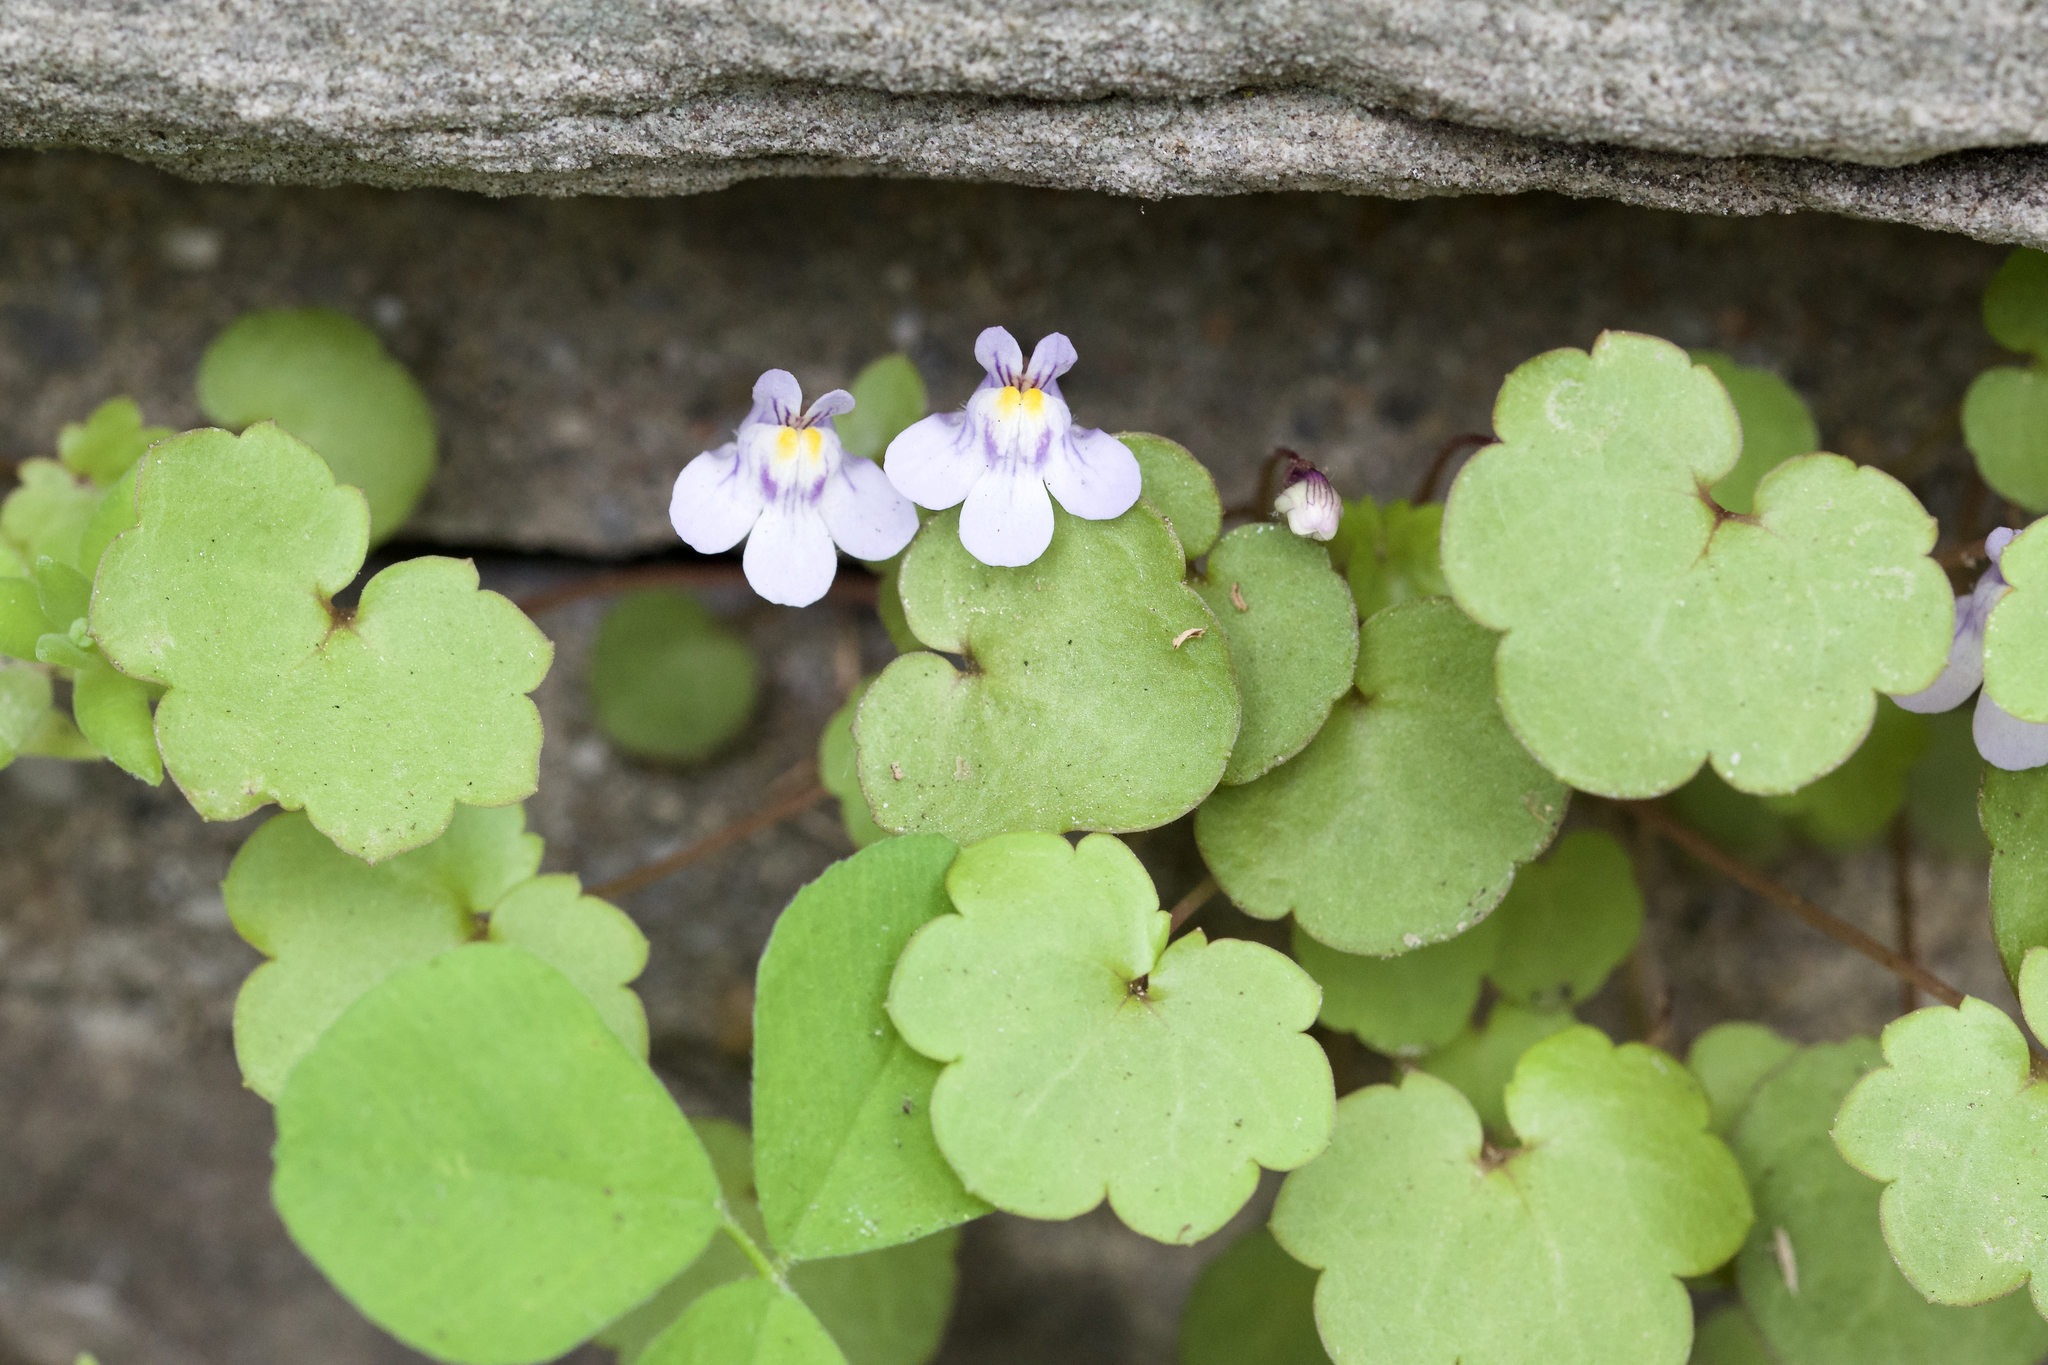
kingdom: Plantae
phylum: Tracheophyta
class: Magnoliopsida
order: Lamiales
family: Plantaginaceae
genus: Cymbalaria
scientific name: Cymbalaria muralis
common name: Ivy-leaved toadflax
